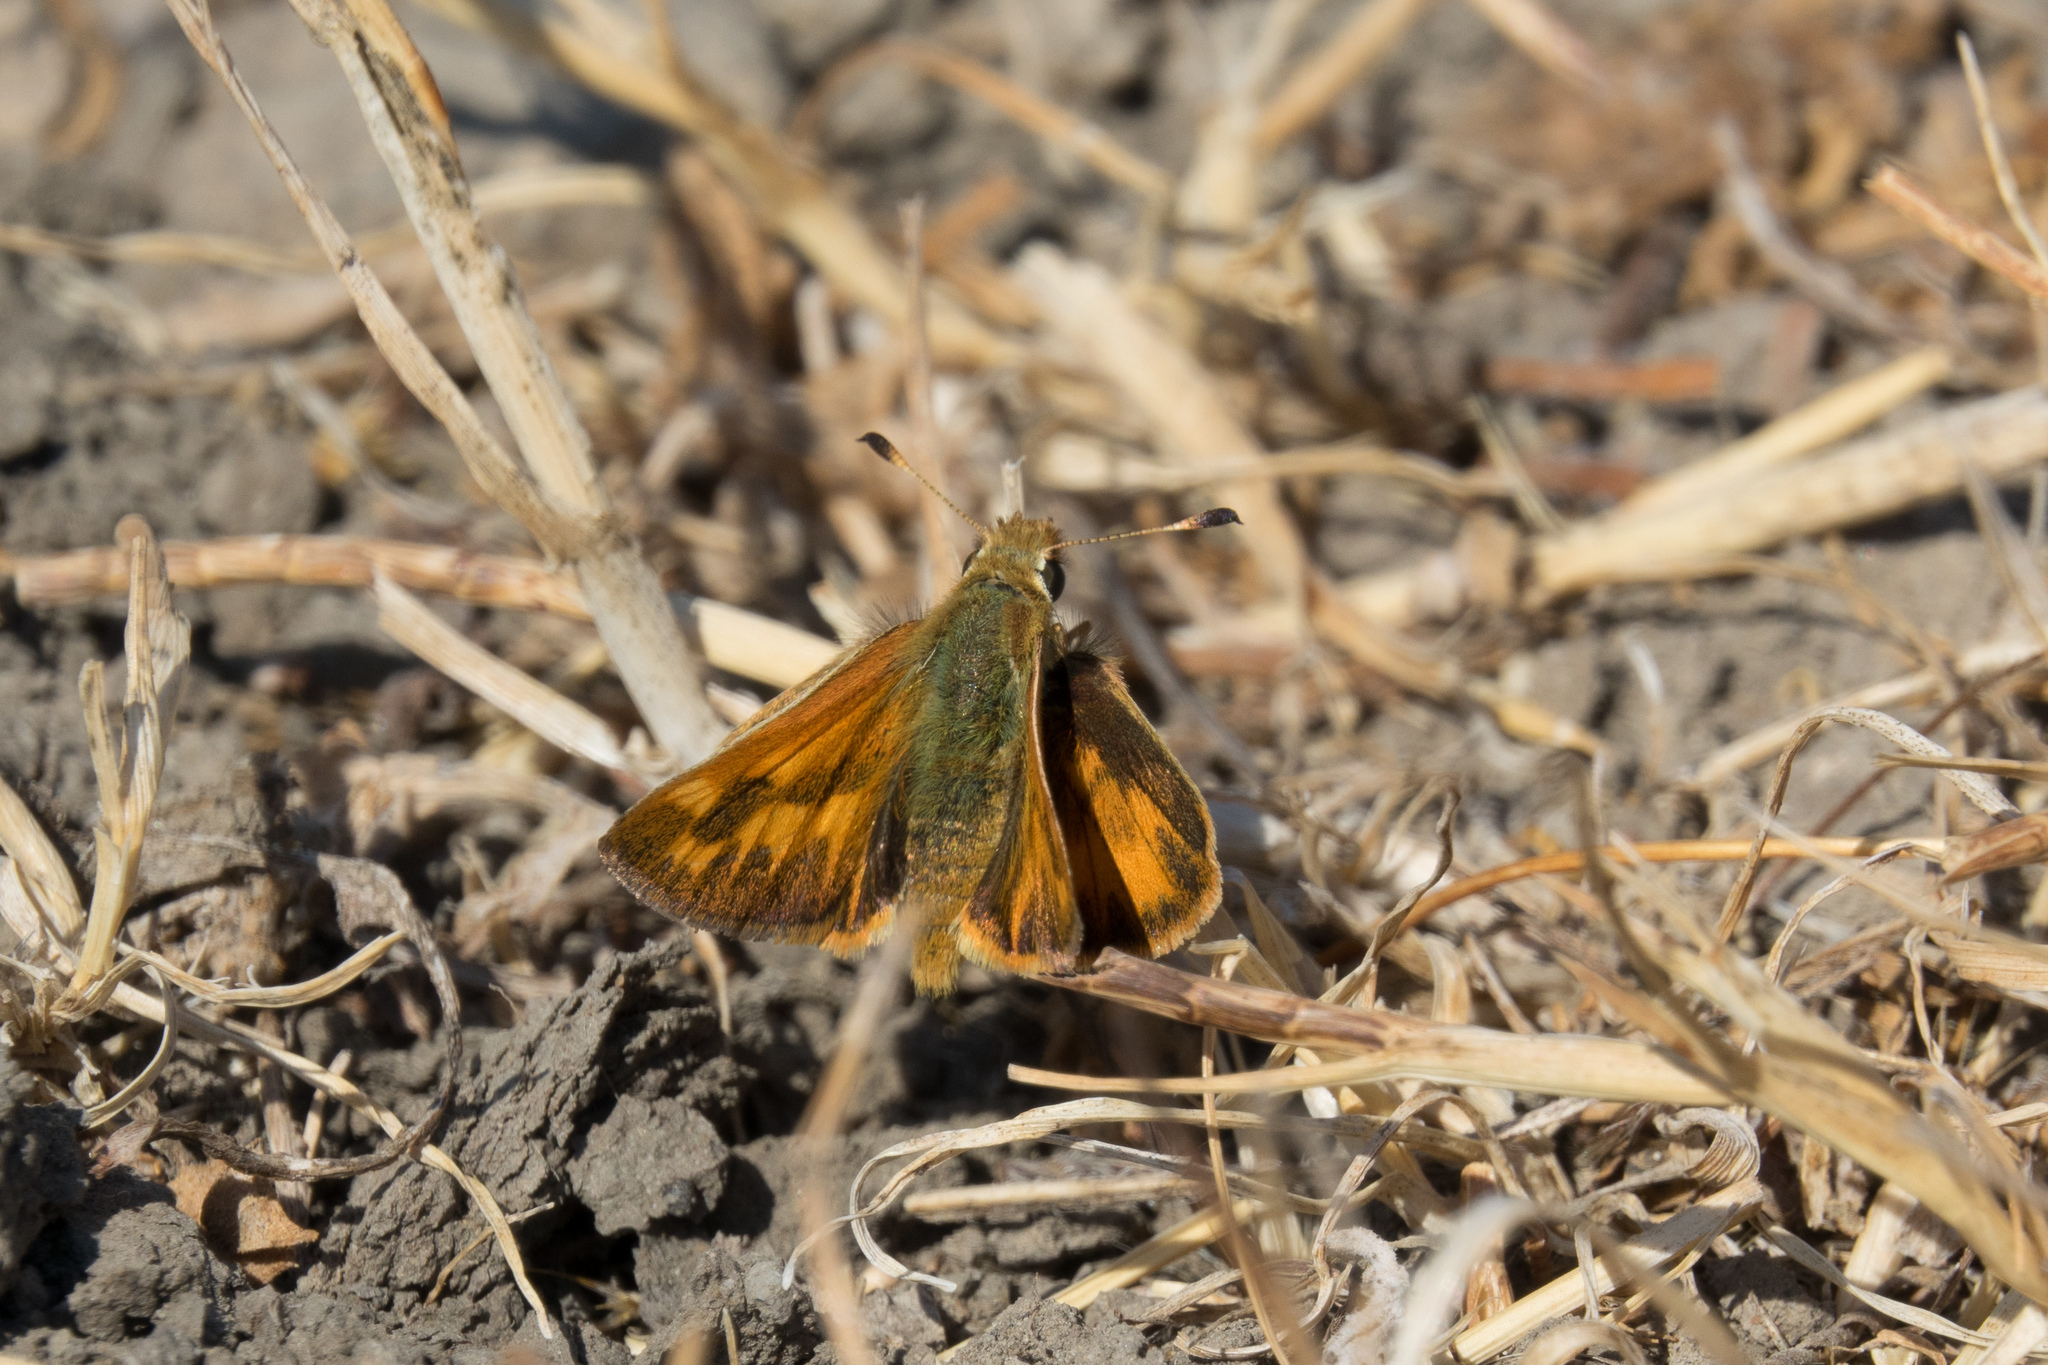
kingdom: Animalia
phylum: Arthropoda
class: Insecta
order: Lepidoptera
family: Hesperiidae
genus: Ochlodes
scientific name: Ochlodes sylvanoides
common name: Woodland skipper
